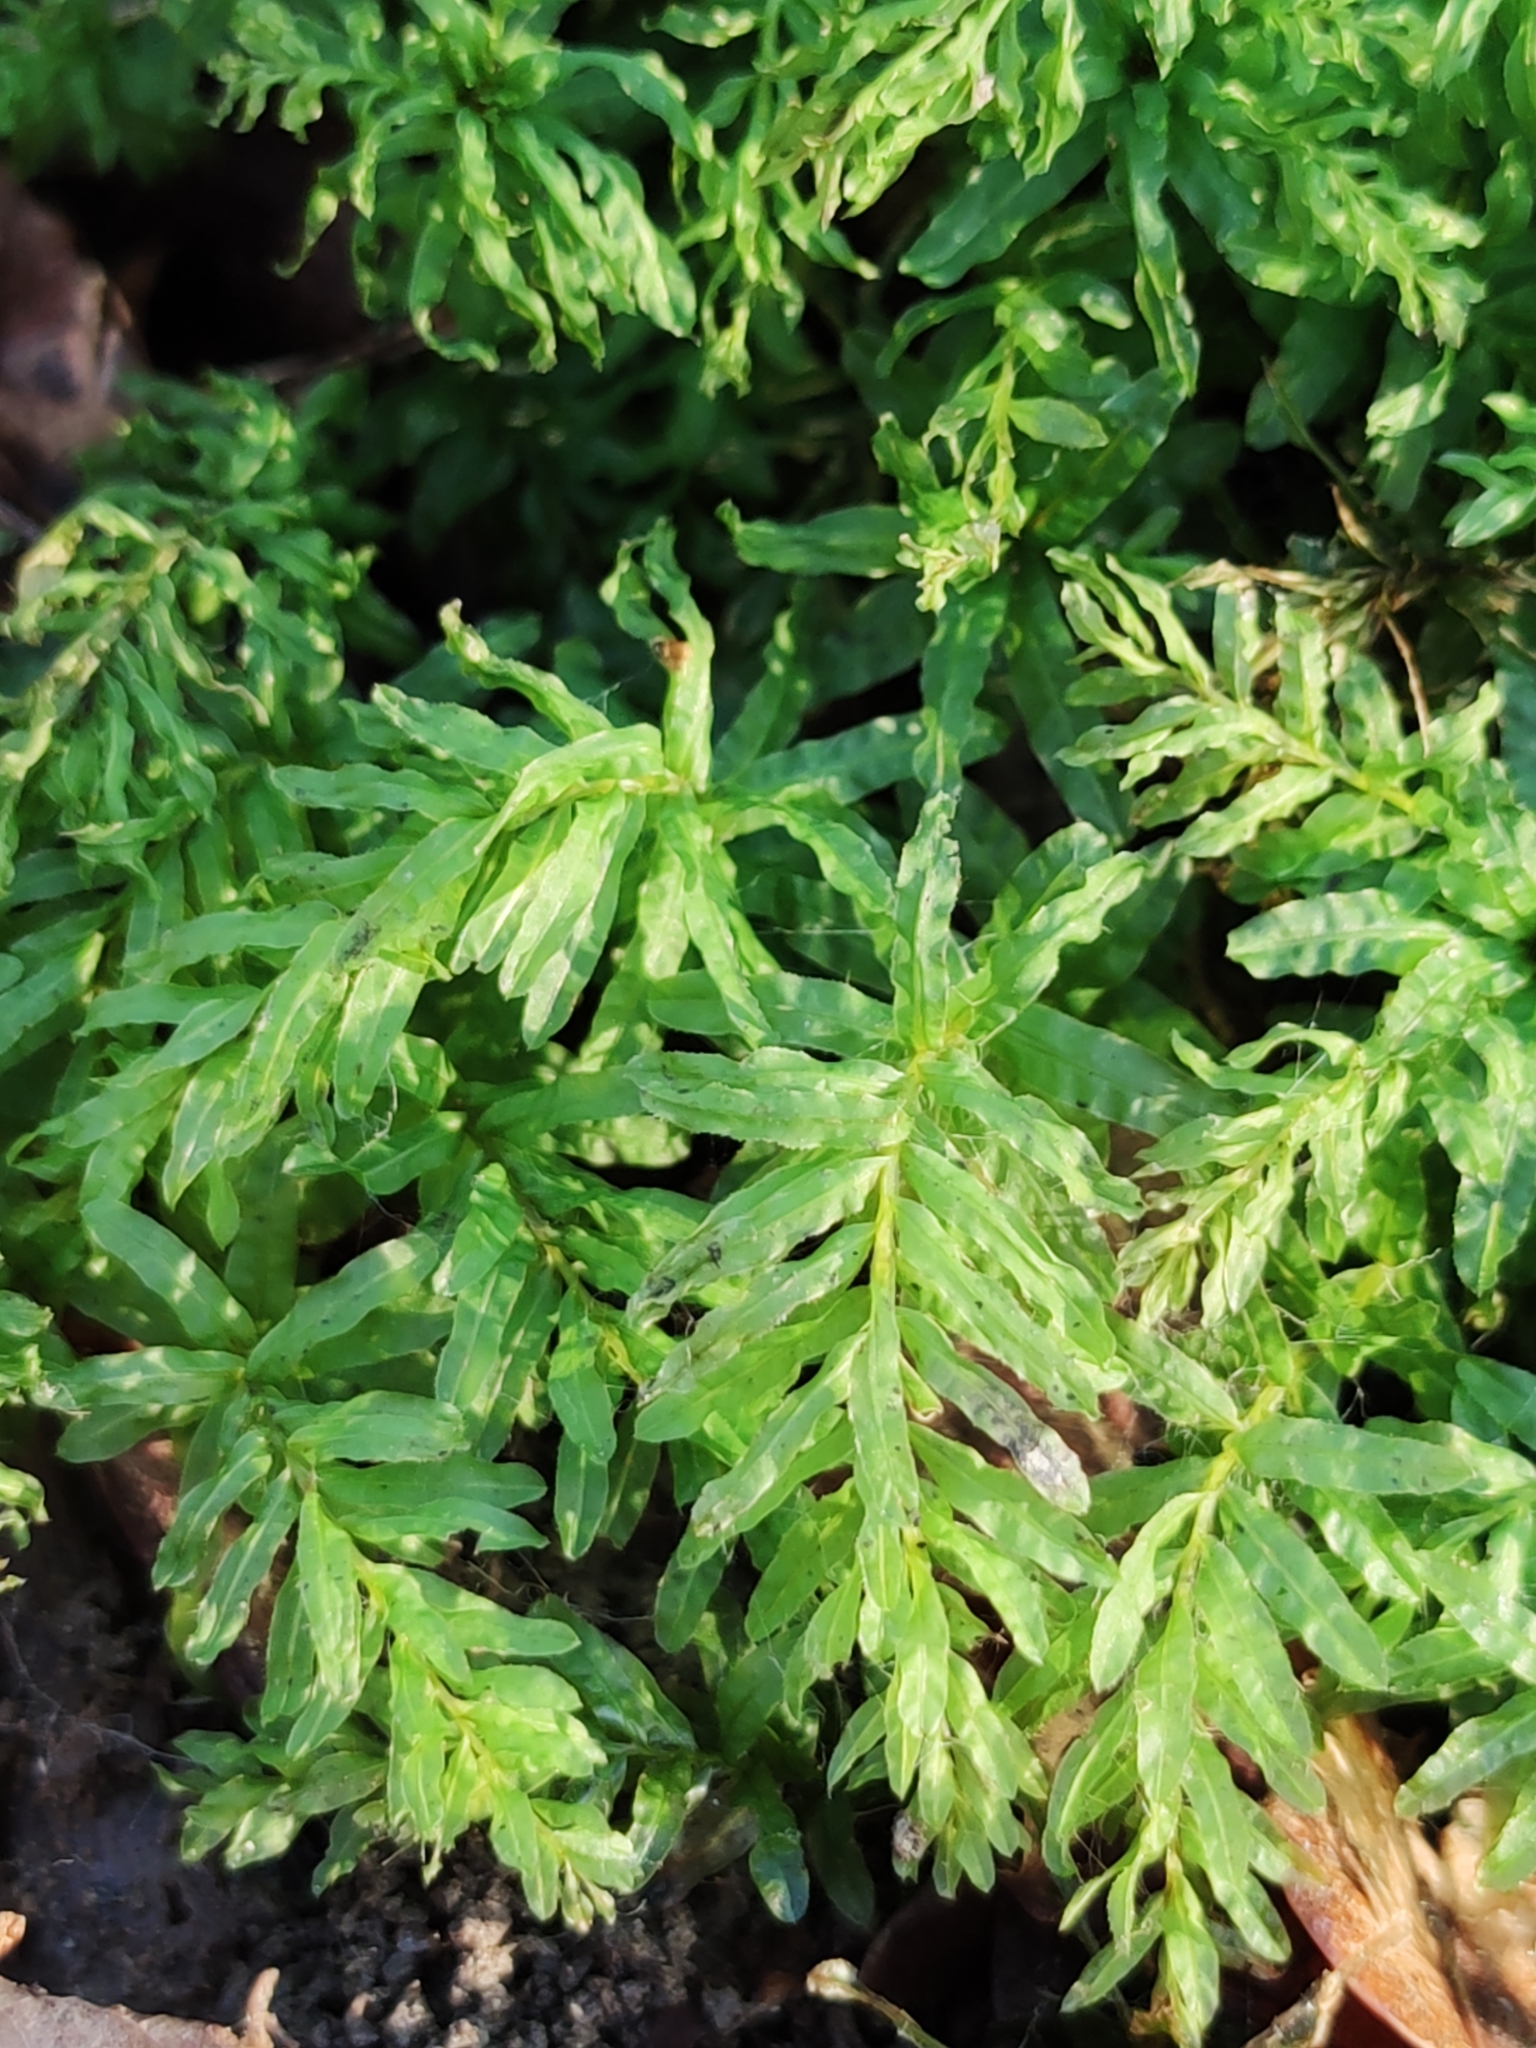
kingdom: Plantae
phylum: Bryophyta
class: Bryopsida
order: Bryales
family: Mniaceae
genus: Plagiomnium
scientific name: Plagiomnium undulatum
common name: Hart's-tongue thyme-moss
